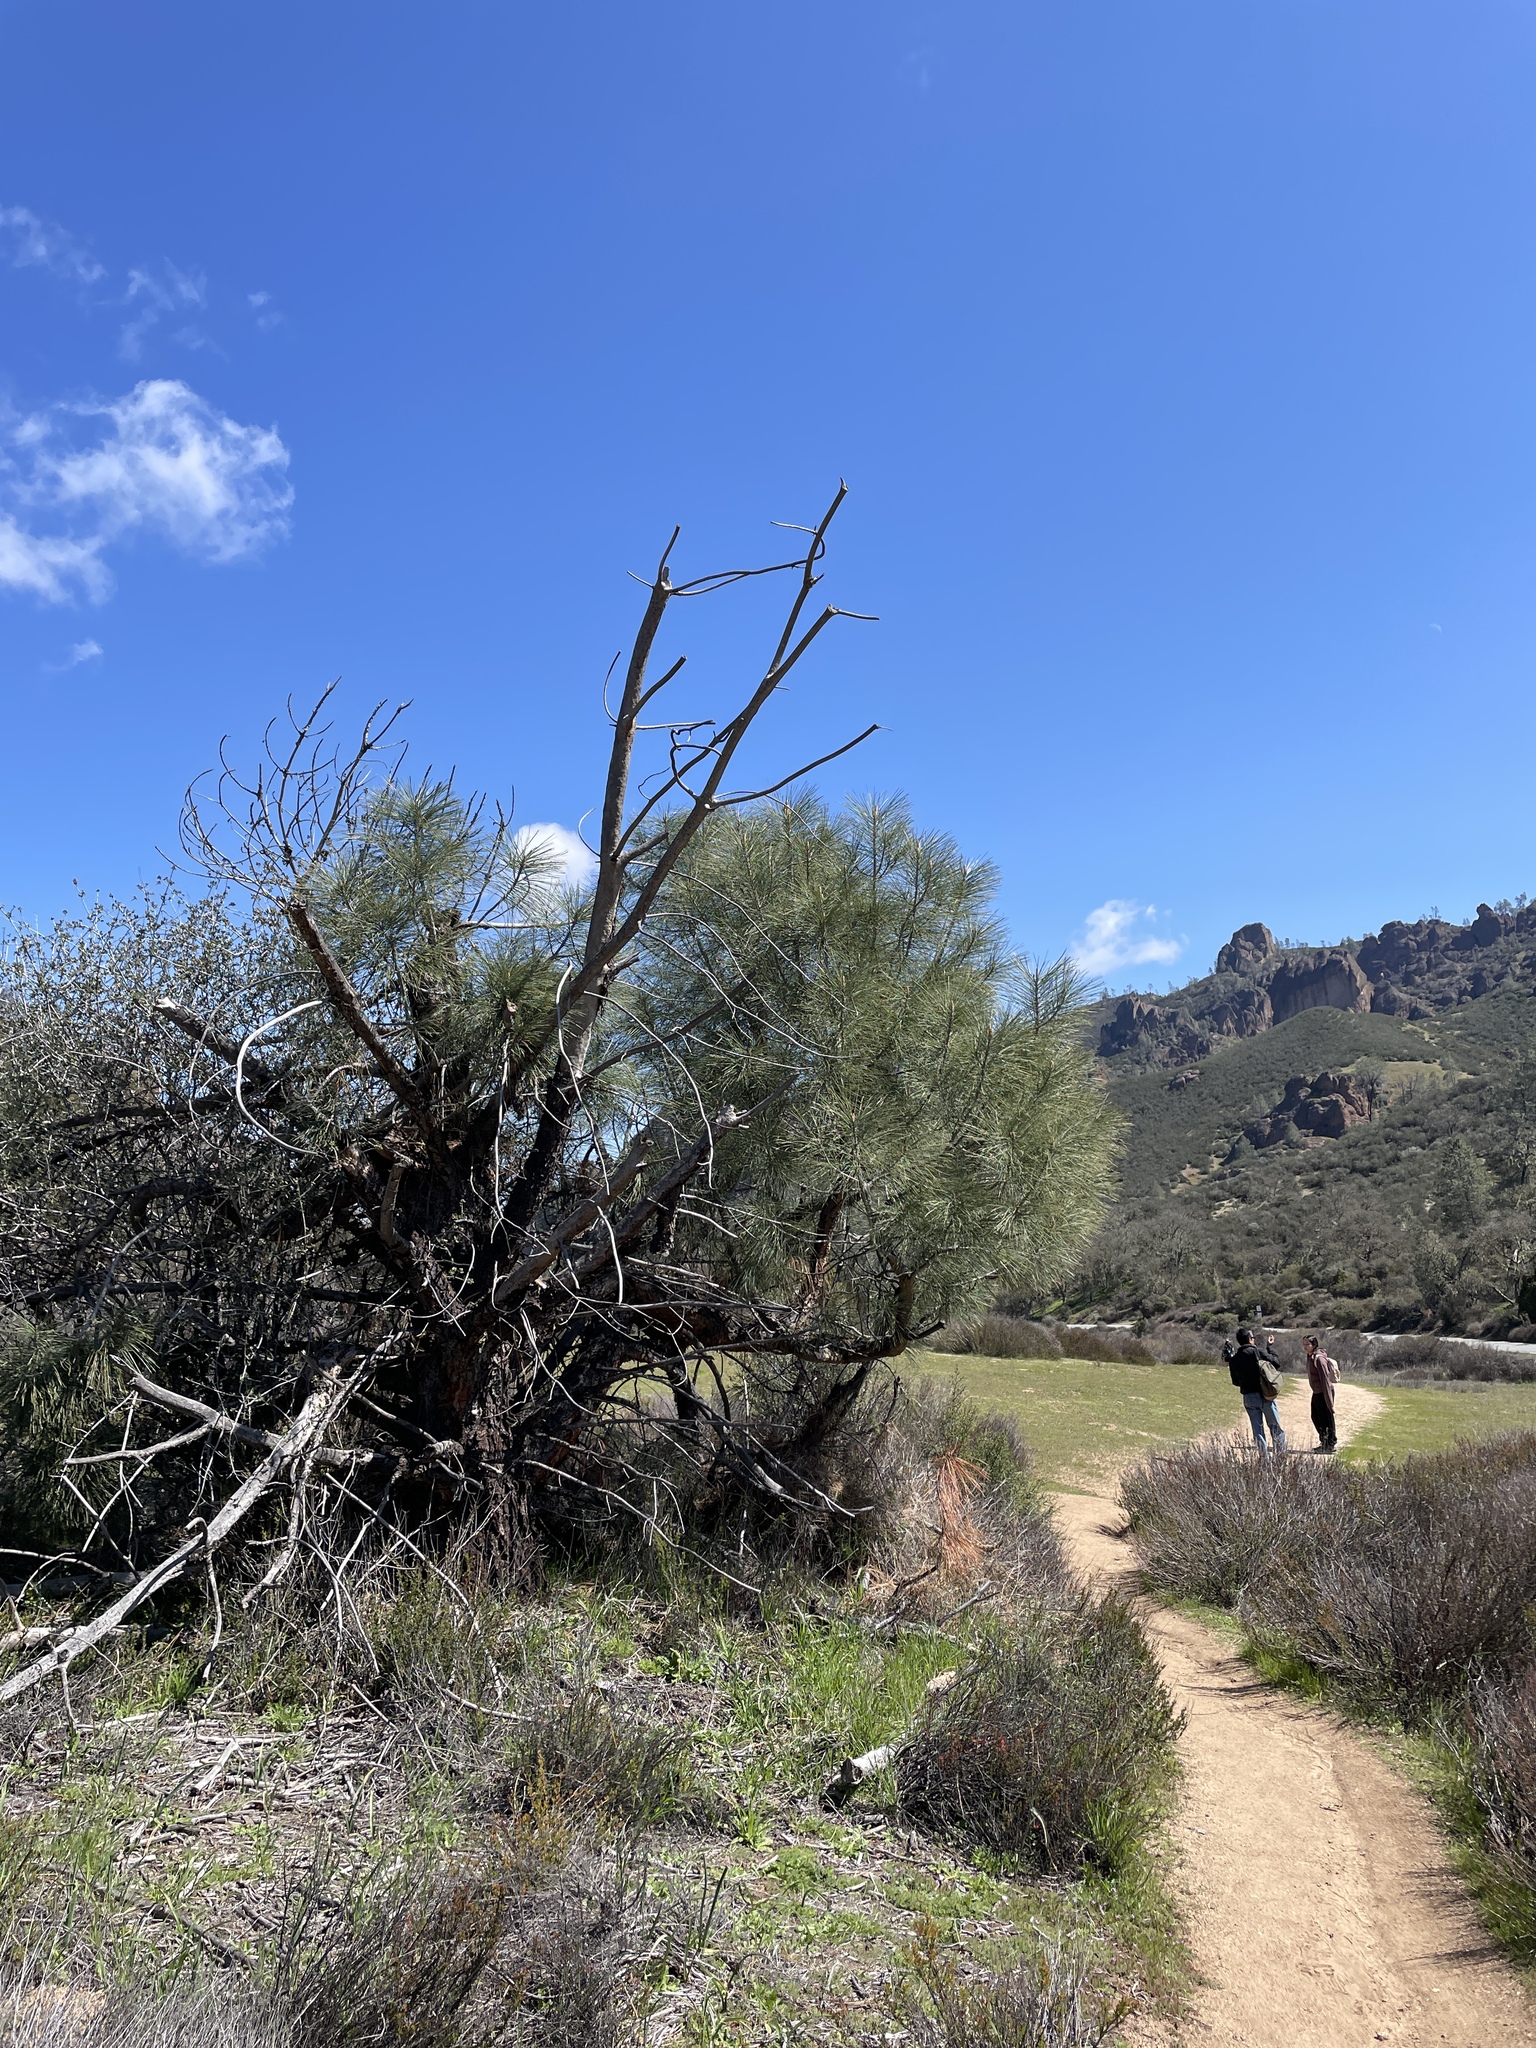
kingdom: Plantae
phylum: Tracheophyta
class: Pinopsida
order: Pinales
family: Pinaceae
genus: Pinus
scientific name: Pinus sabiniana
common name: Bull pine
